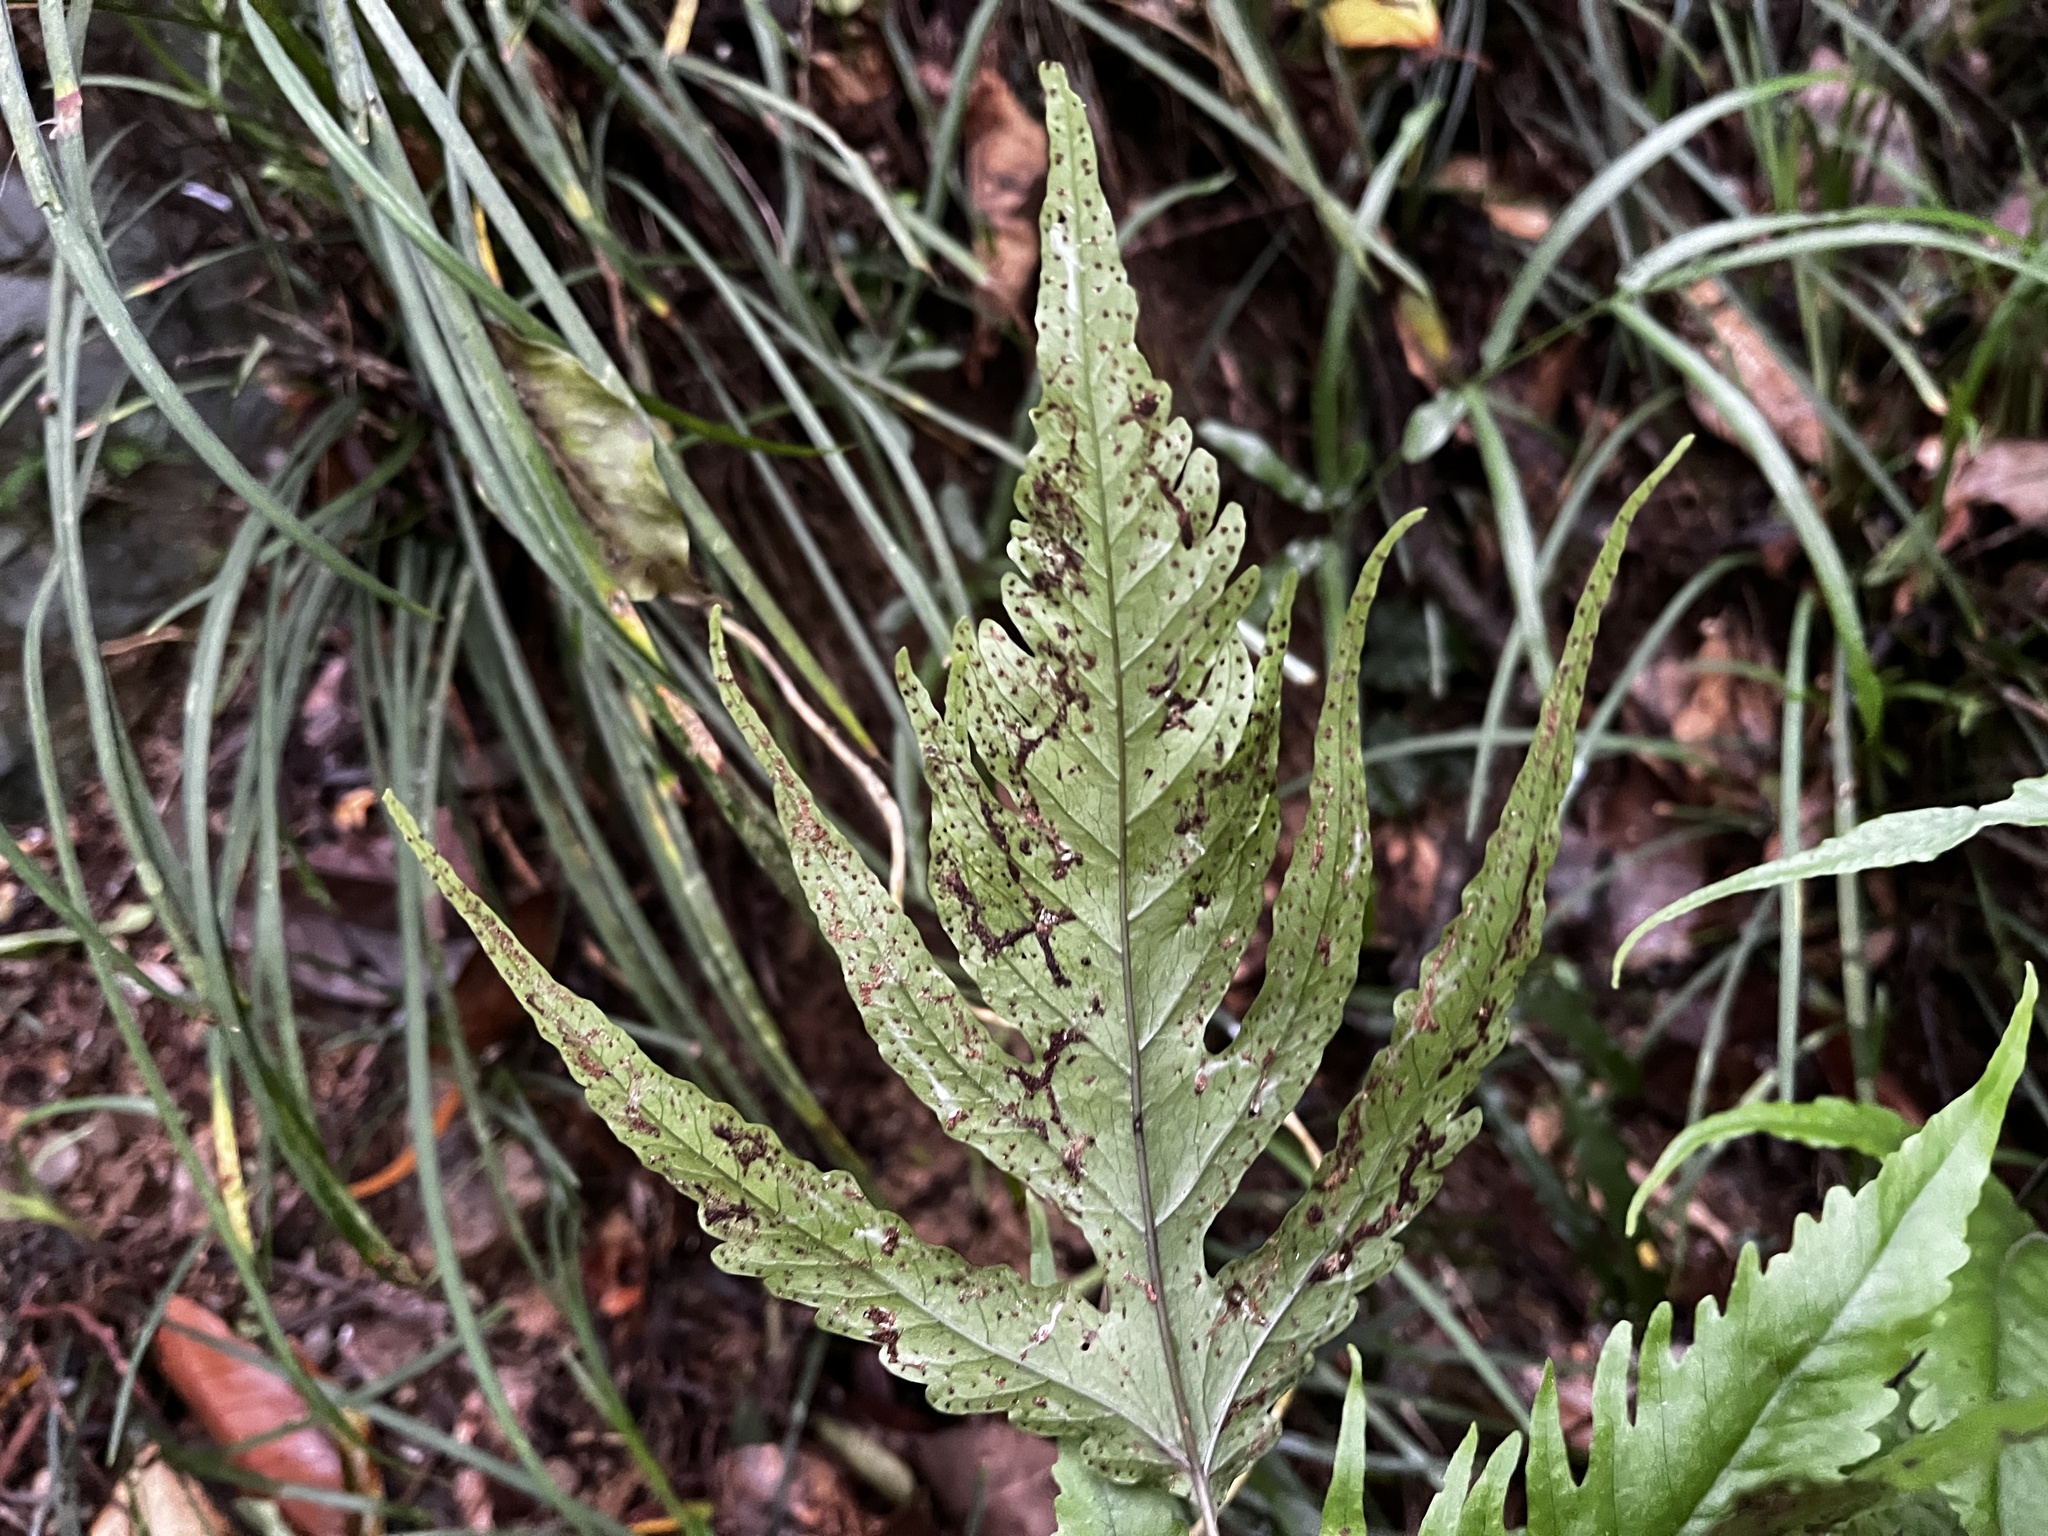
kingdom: Plantae
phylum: Tracheophyta
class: Polypodiopsida
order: Polypodiales
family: Tectariaceae
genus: Tectaria
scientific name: Tectaria subtriphylla
